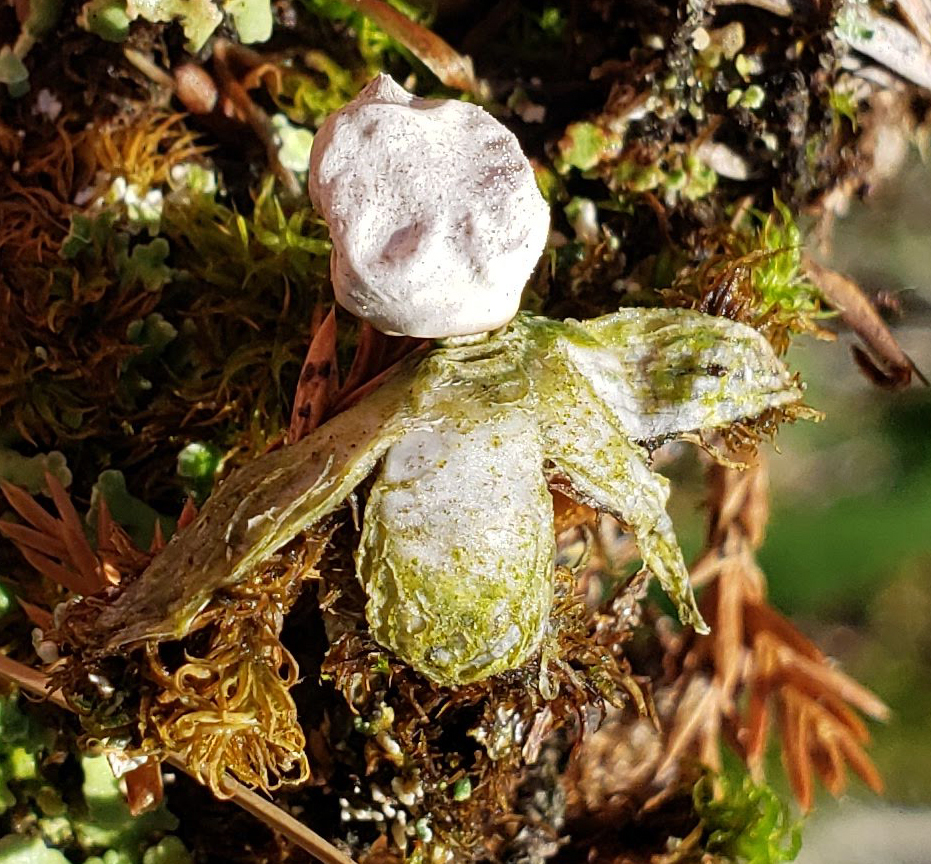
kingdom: Fungi
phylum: Basidiomycota
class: Agaricomycetes
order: Geastrales
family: Geastraceae
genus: Geastrum
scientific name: Geastrum
